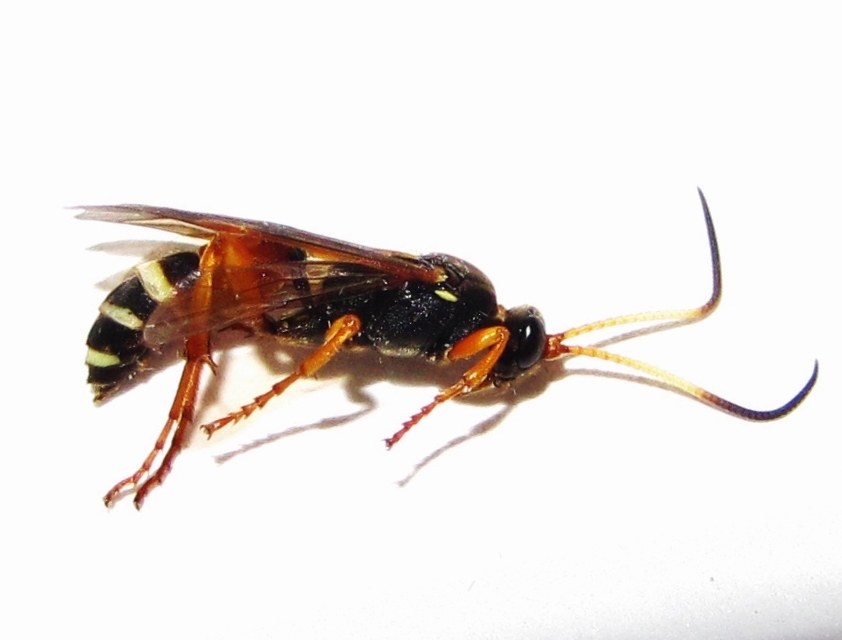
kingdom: Animalia
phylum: Arthropoda
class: Insecta
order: Hymenoptera
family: Ichneumonidae
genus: Ichneumon
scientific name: Ichneumon ambulatorius
